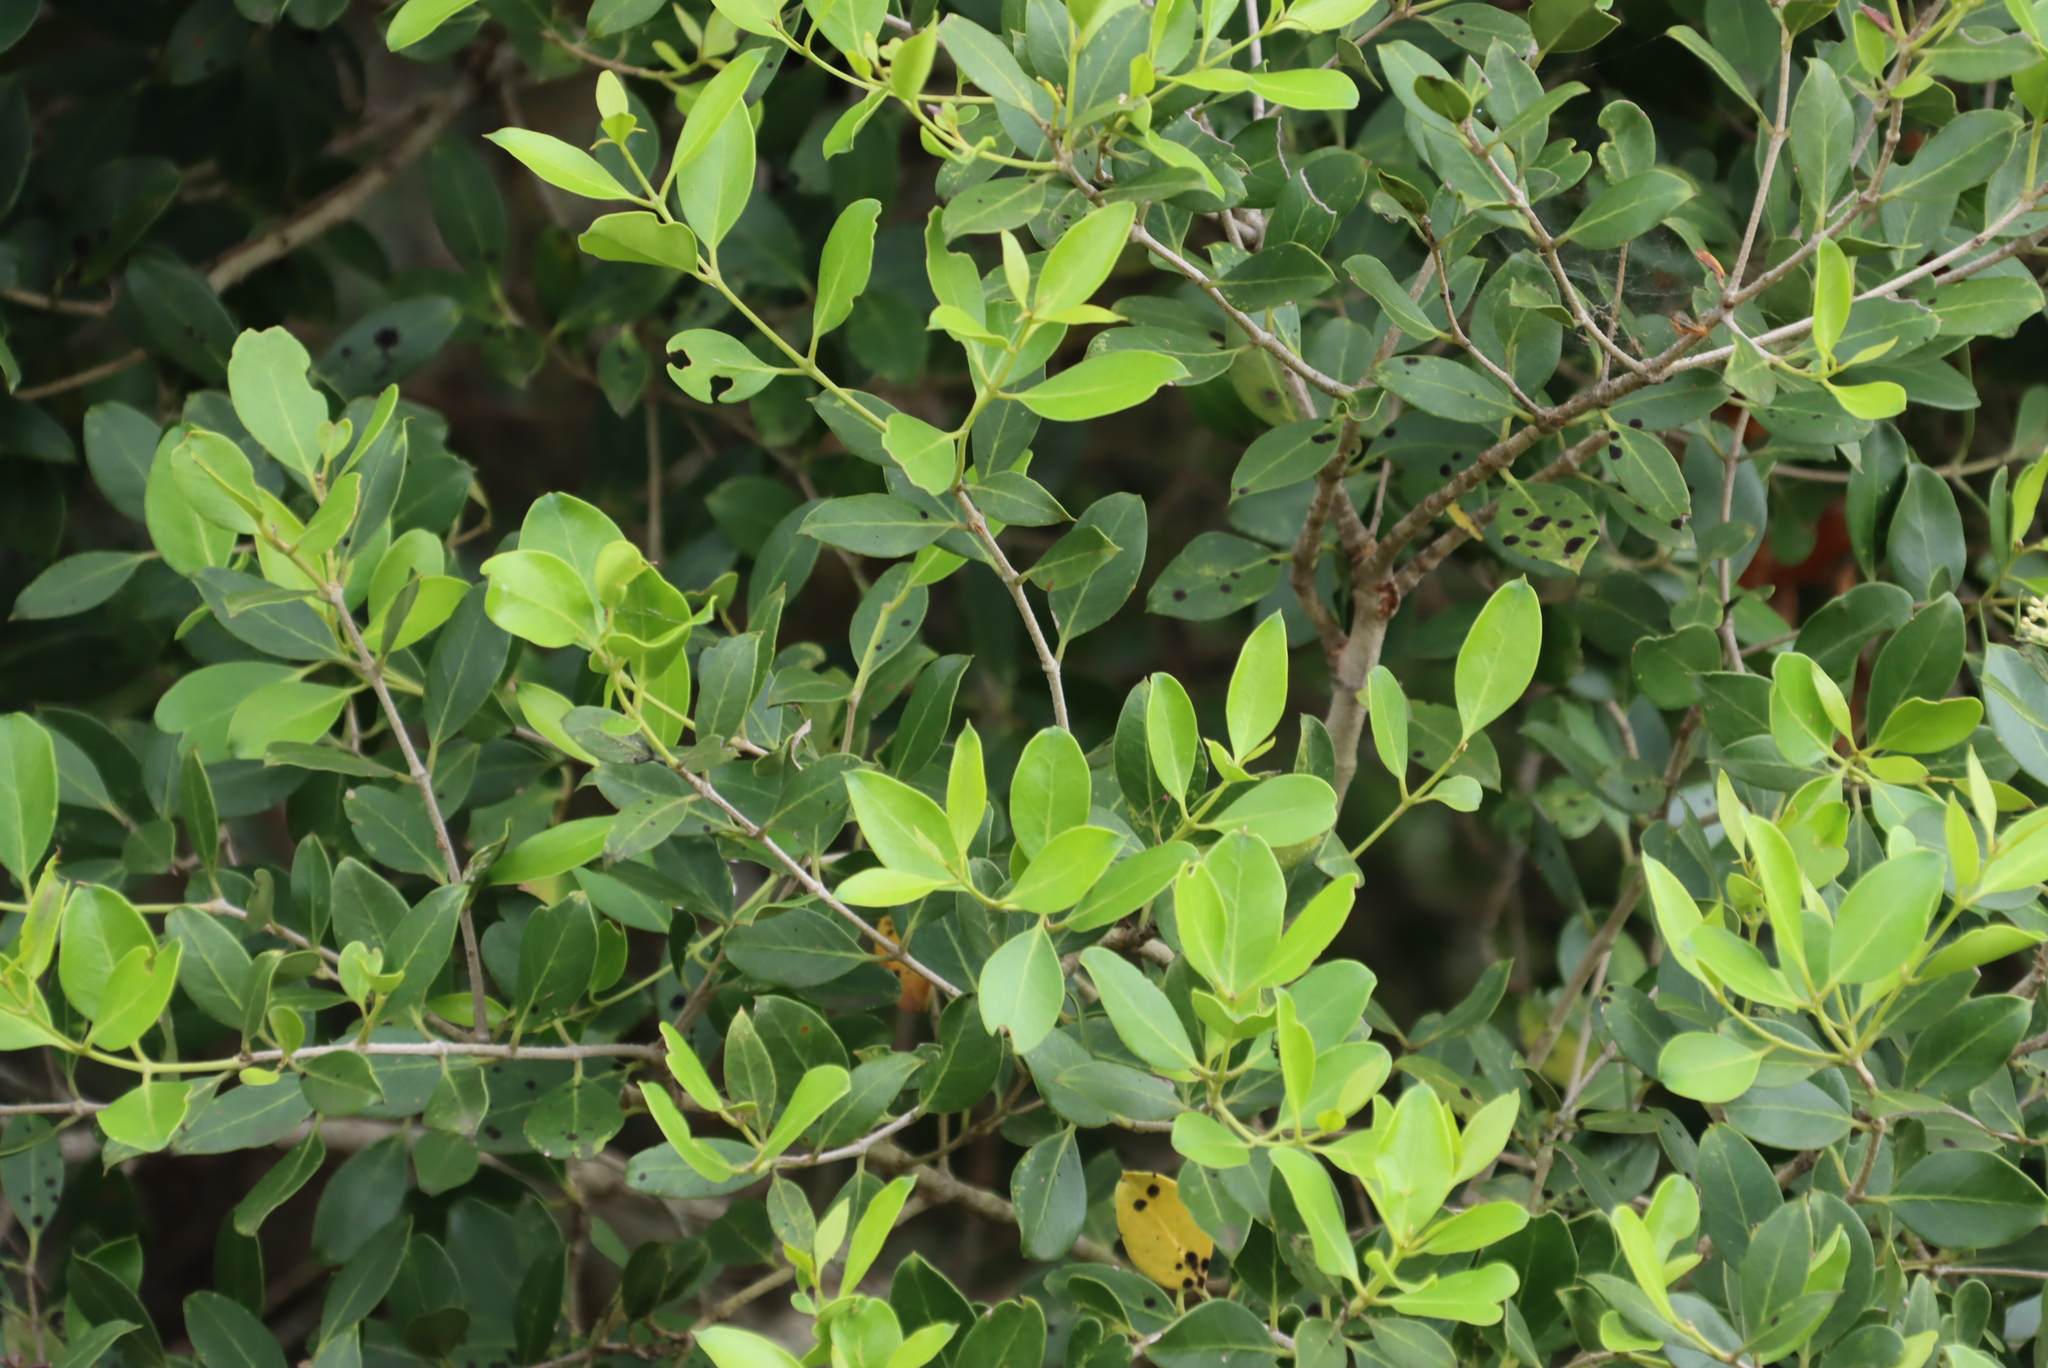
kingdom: Plantae
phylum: Tracheophyta
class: Magnoliopsida
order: Lamiales
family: Oleaceae
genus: Olea
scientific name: Olea capensis
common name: Black ironwood
